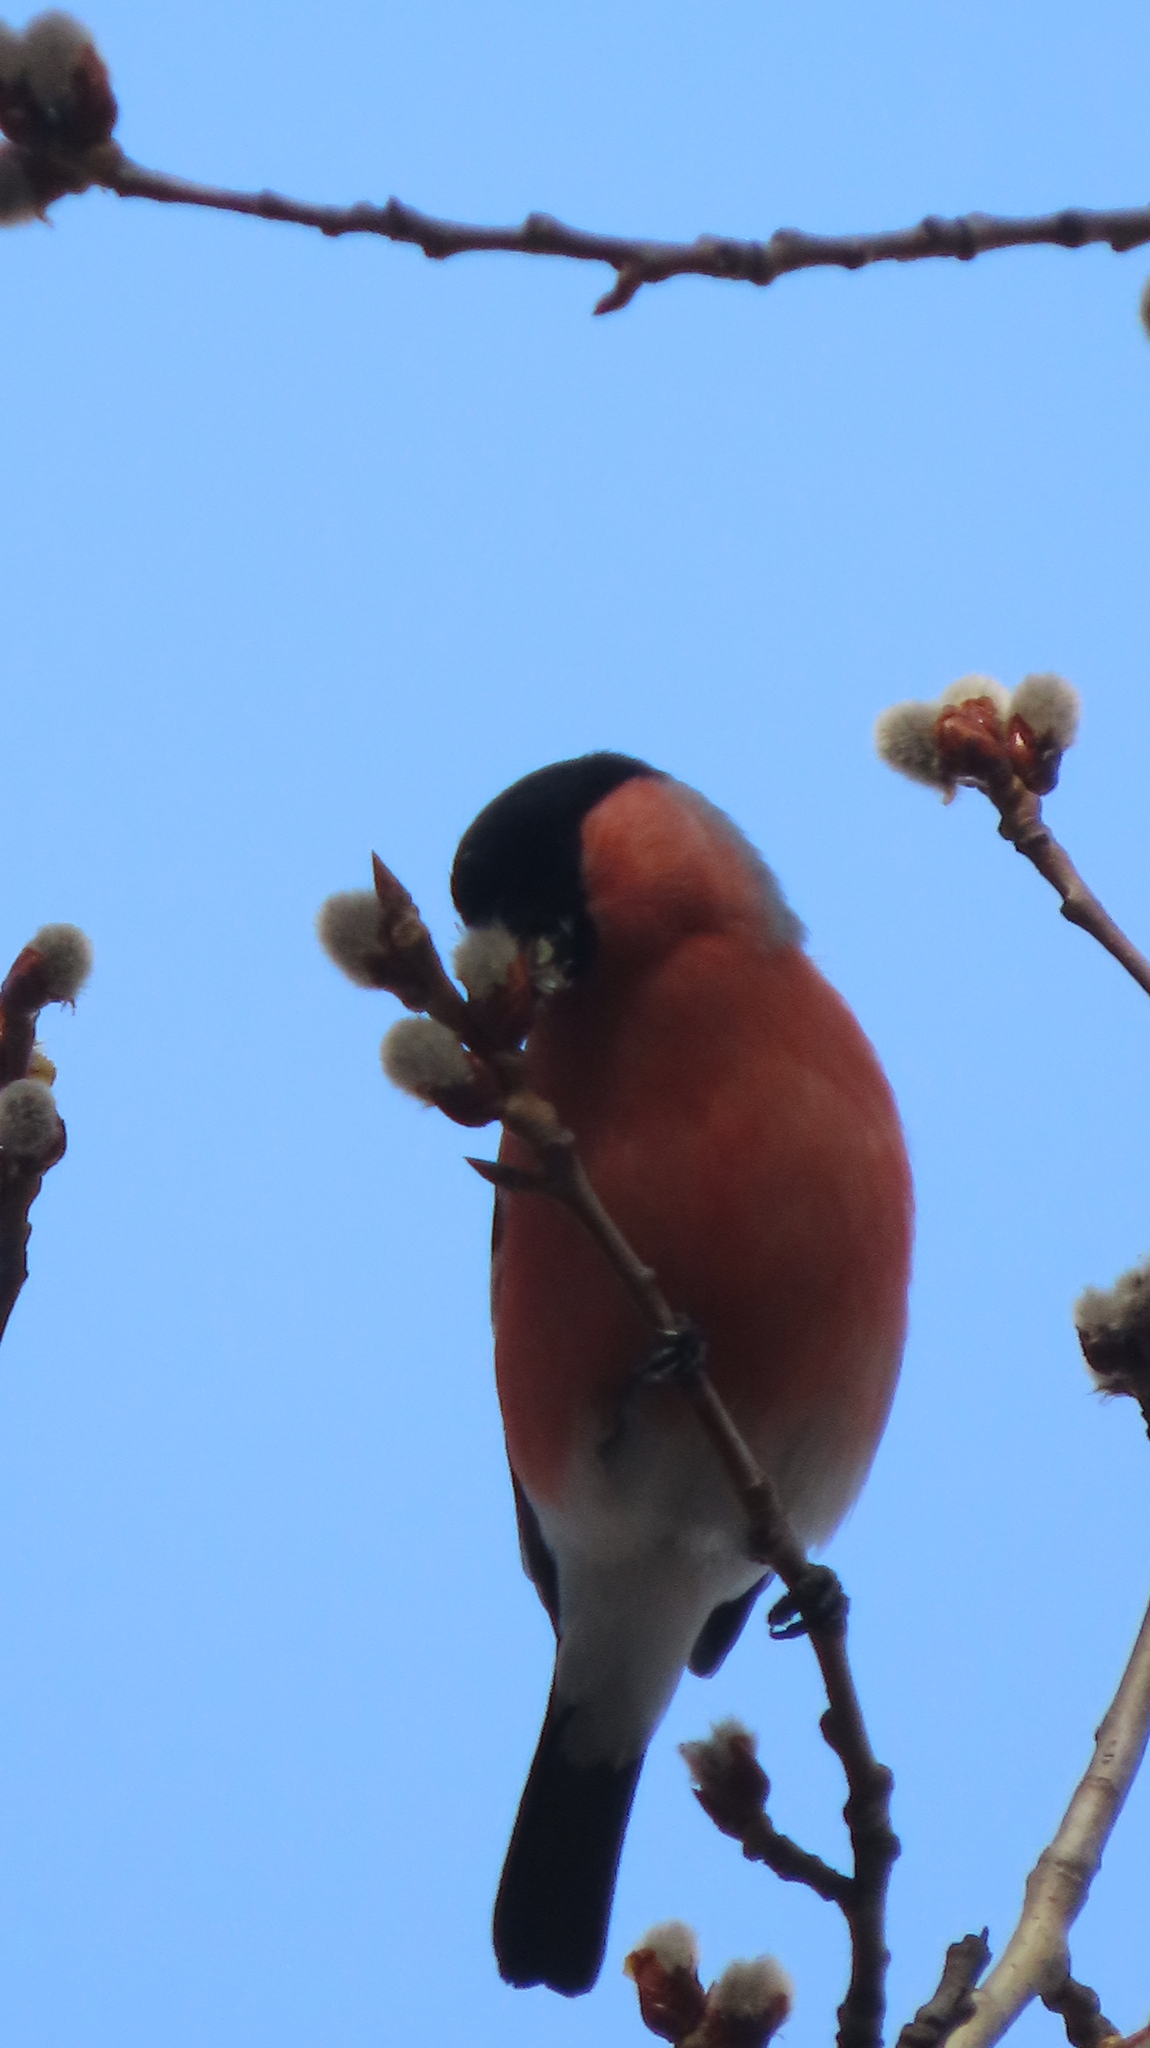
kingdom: Animalia
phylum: Chordata
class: Aves
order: Passeriformes
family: Fringillidae
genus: Pyrrhula
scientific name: Pyrrhula pyrrhula
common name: Eurasian bullfinch
